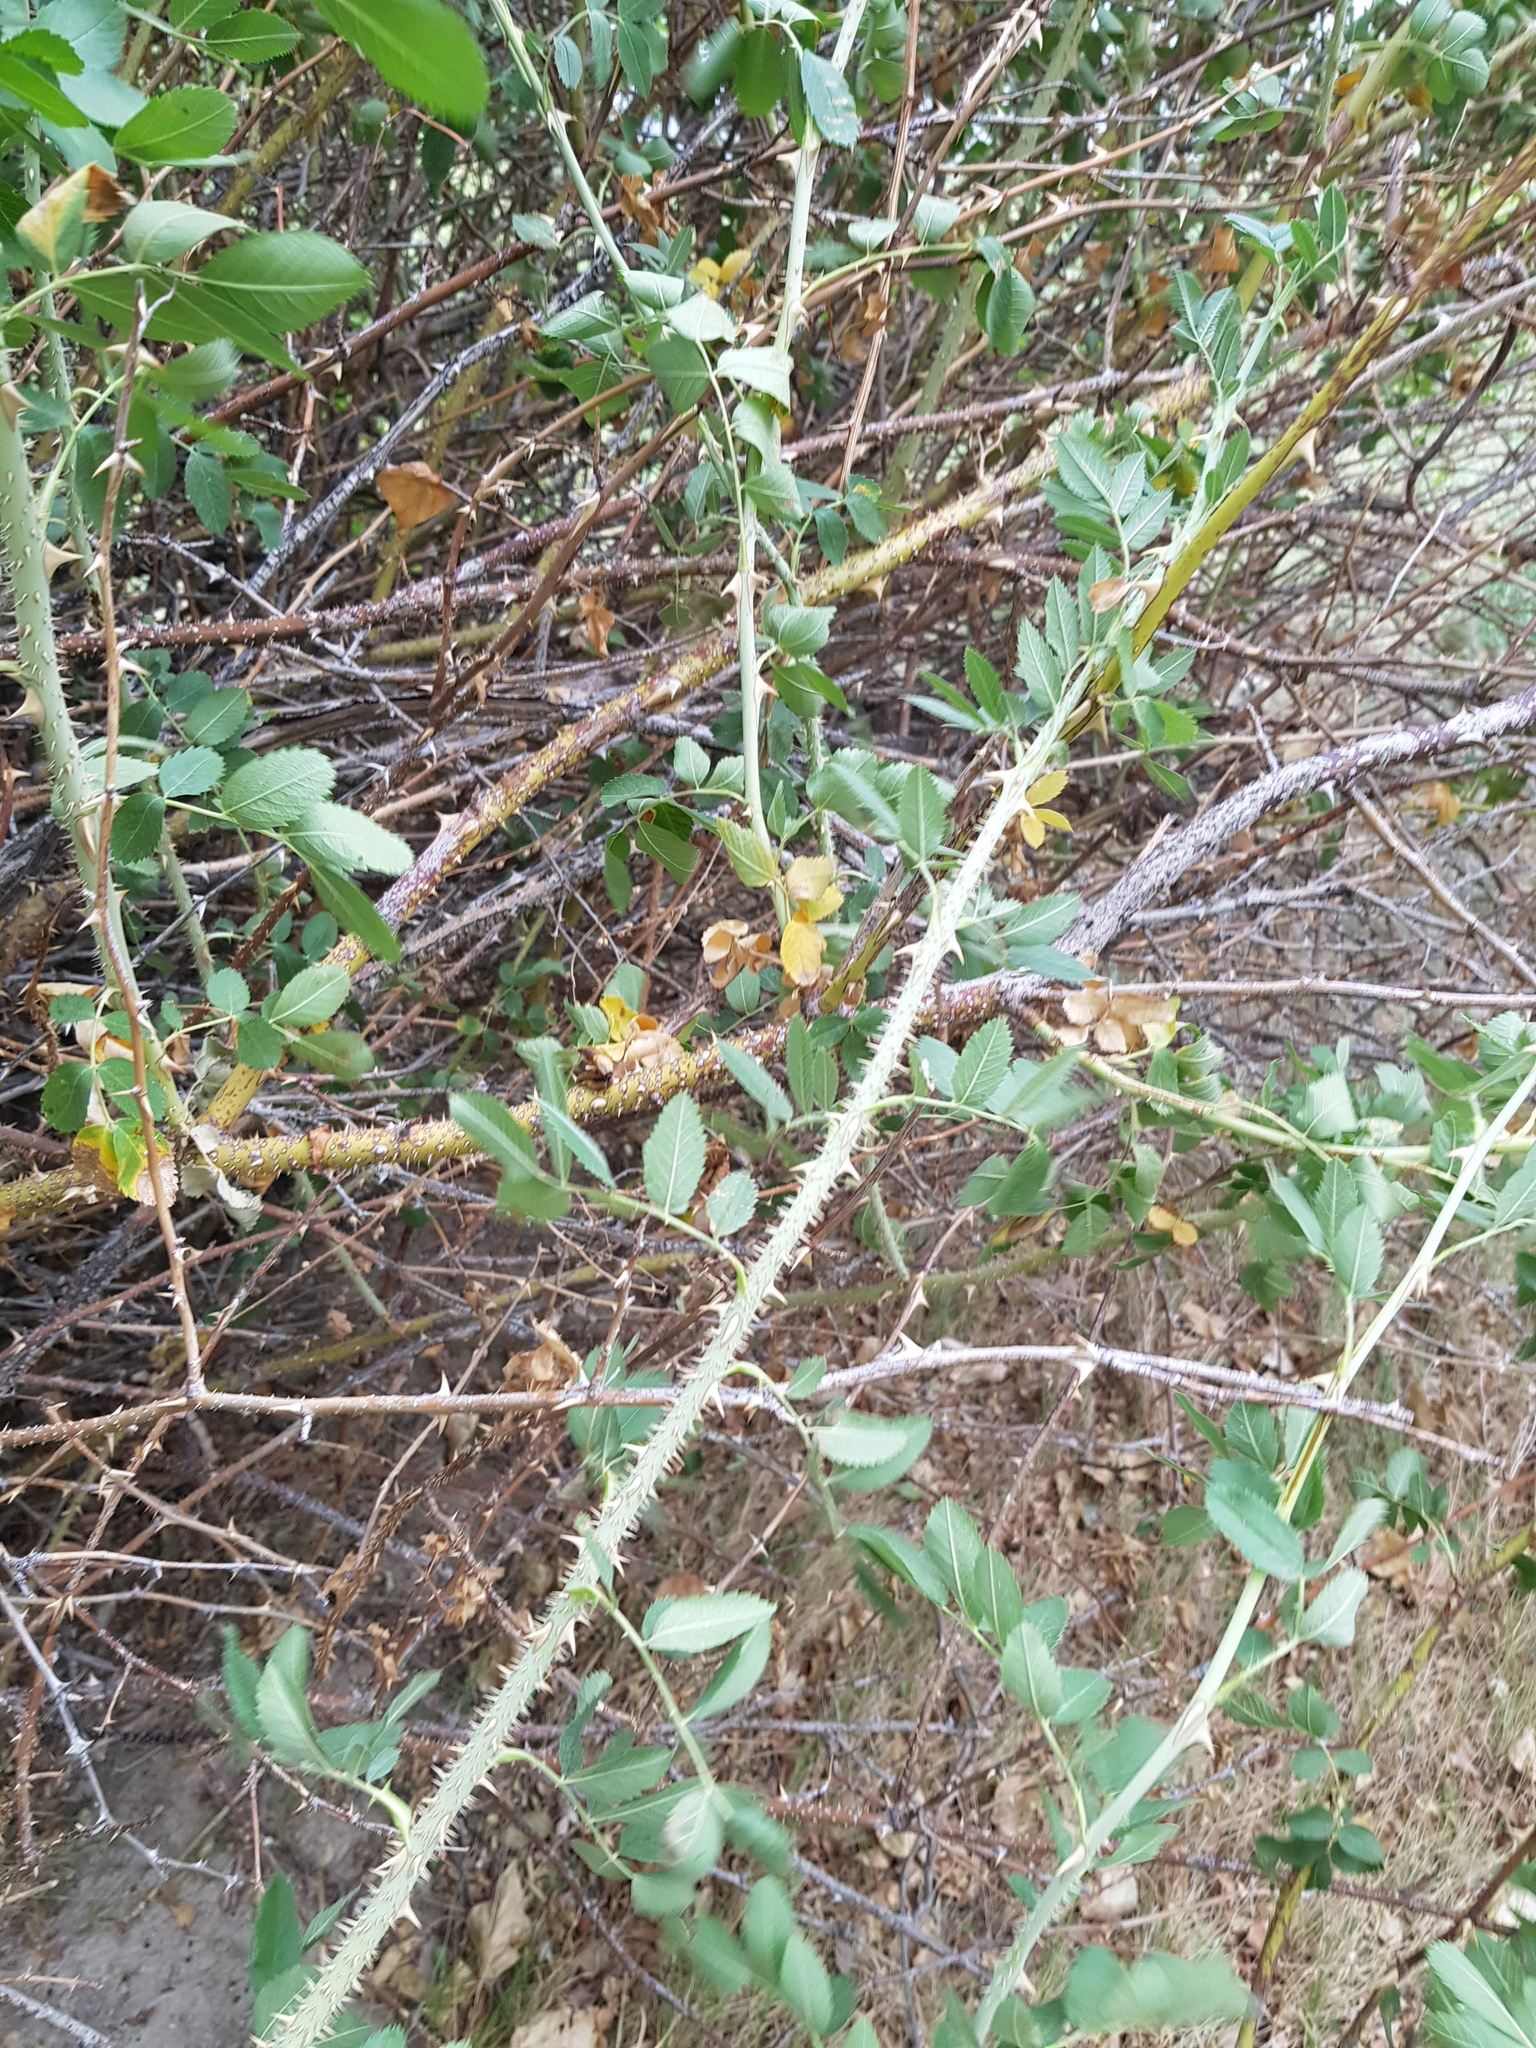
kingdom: Plantae
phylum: Tracheophyta
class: Magnoliopsida
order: Rosales
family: Rosaceae
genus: Rosa
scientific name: Rosa laxa
